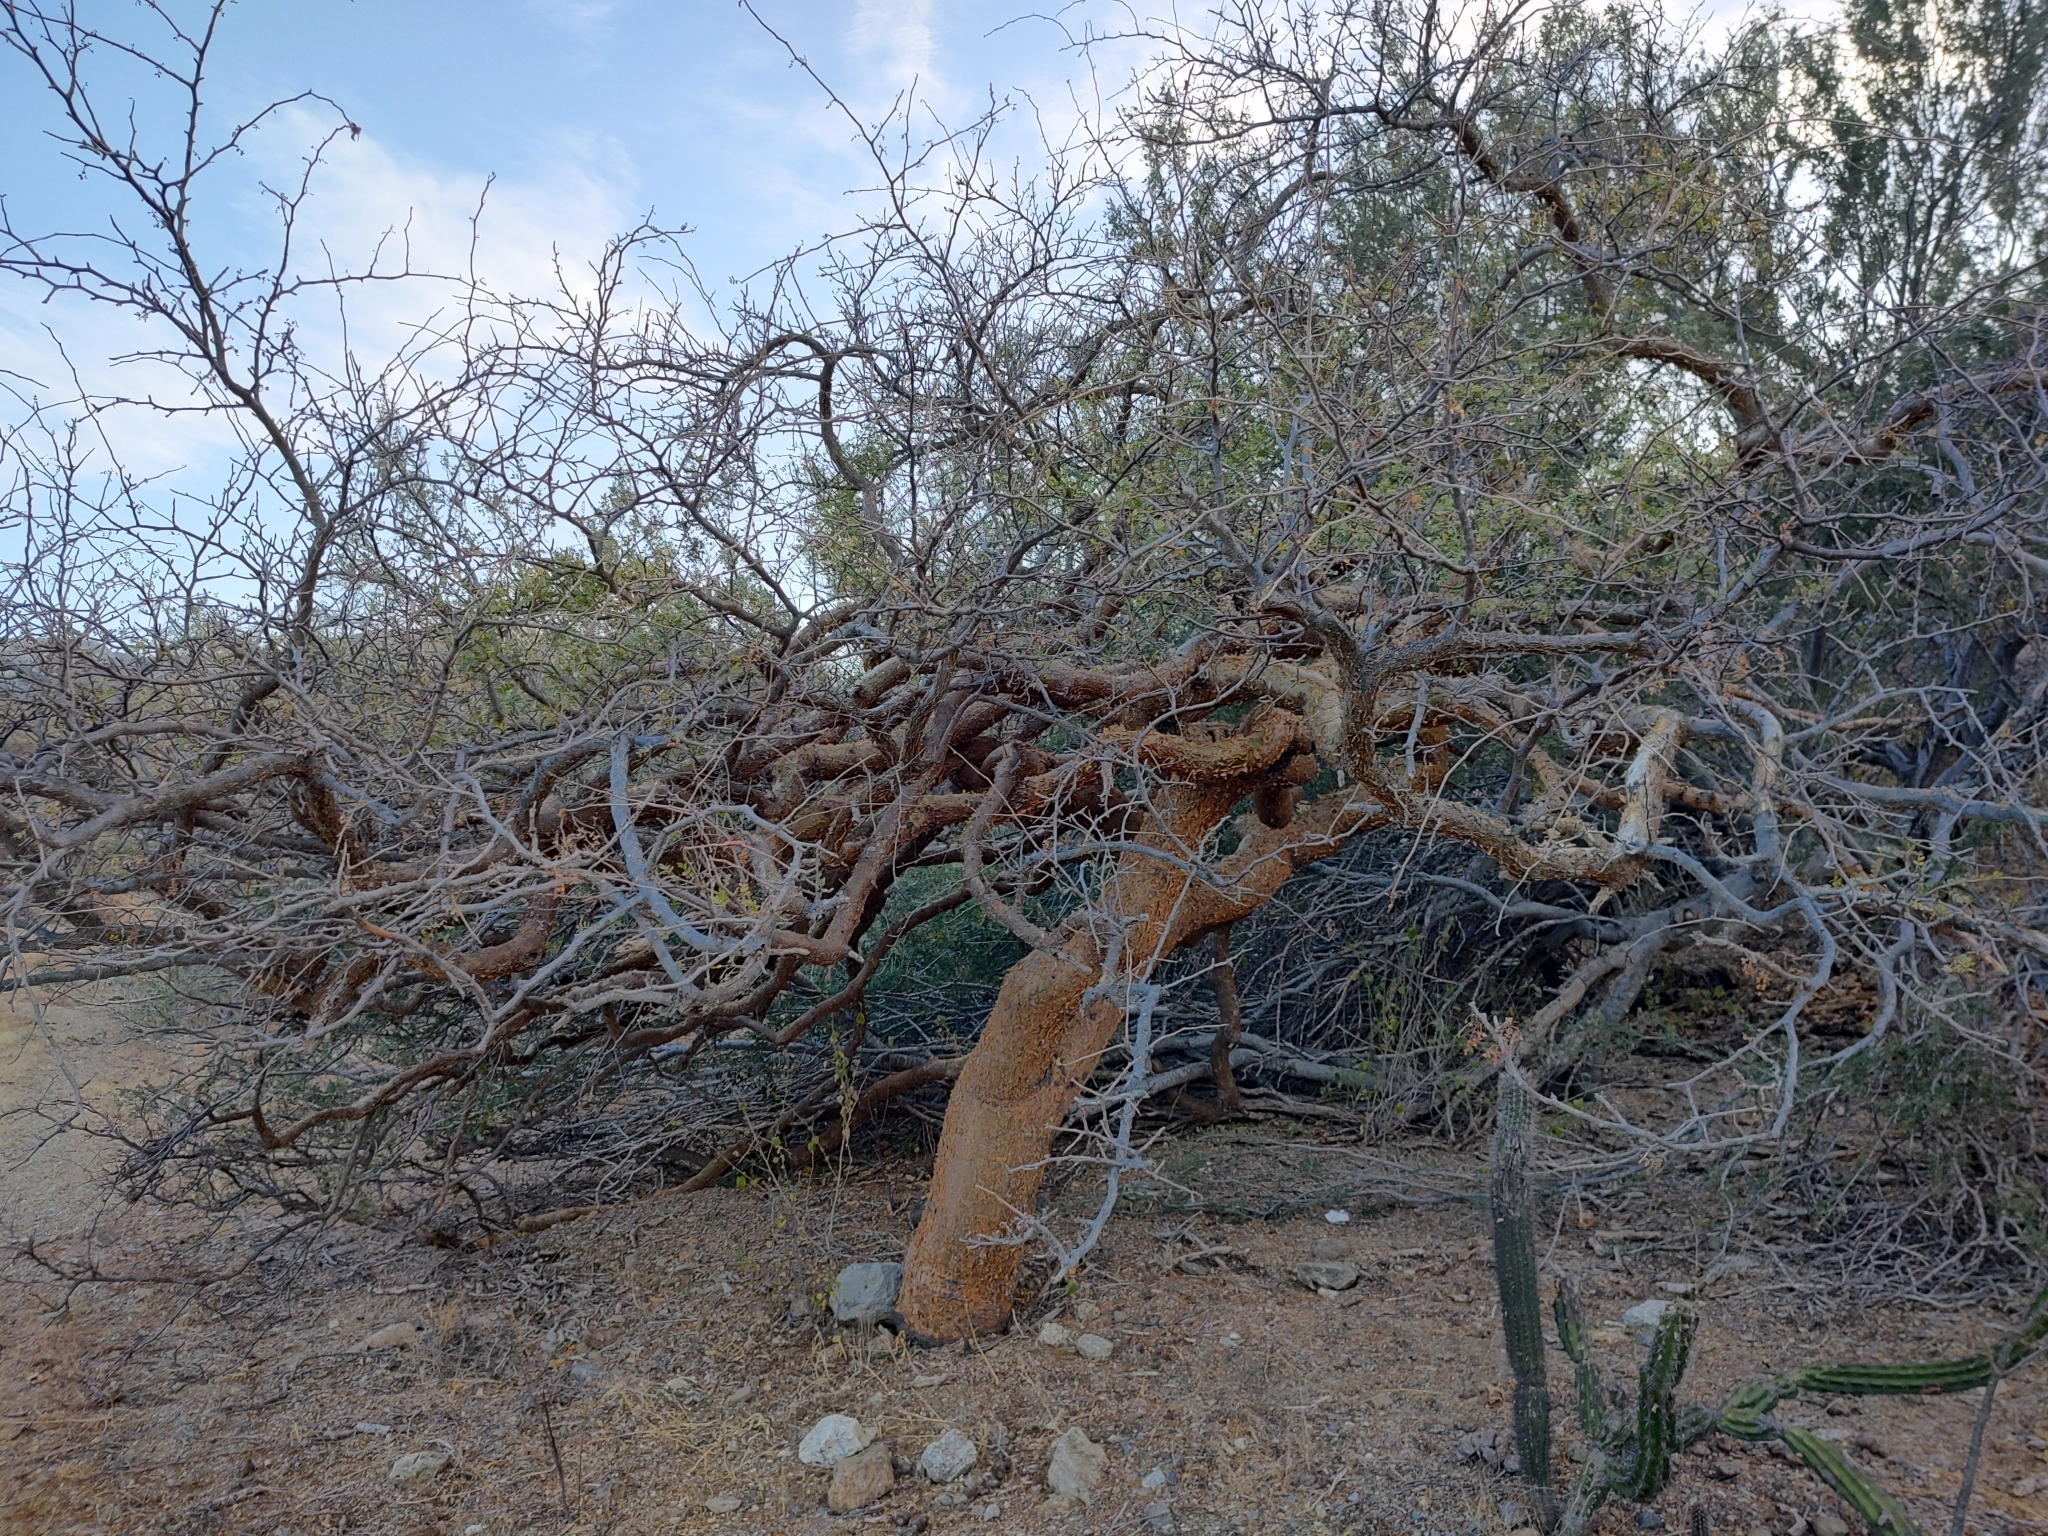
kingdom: Plantae
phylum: Tracheophyta
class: Magnoliopsida
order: Sapindales
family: Burseraceae
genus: Bursera
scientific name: Bursera microphylla
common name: Elephant tree
